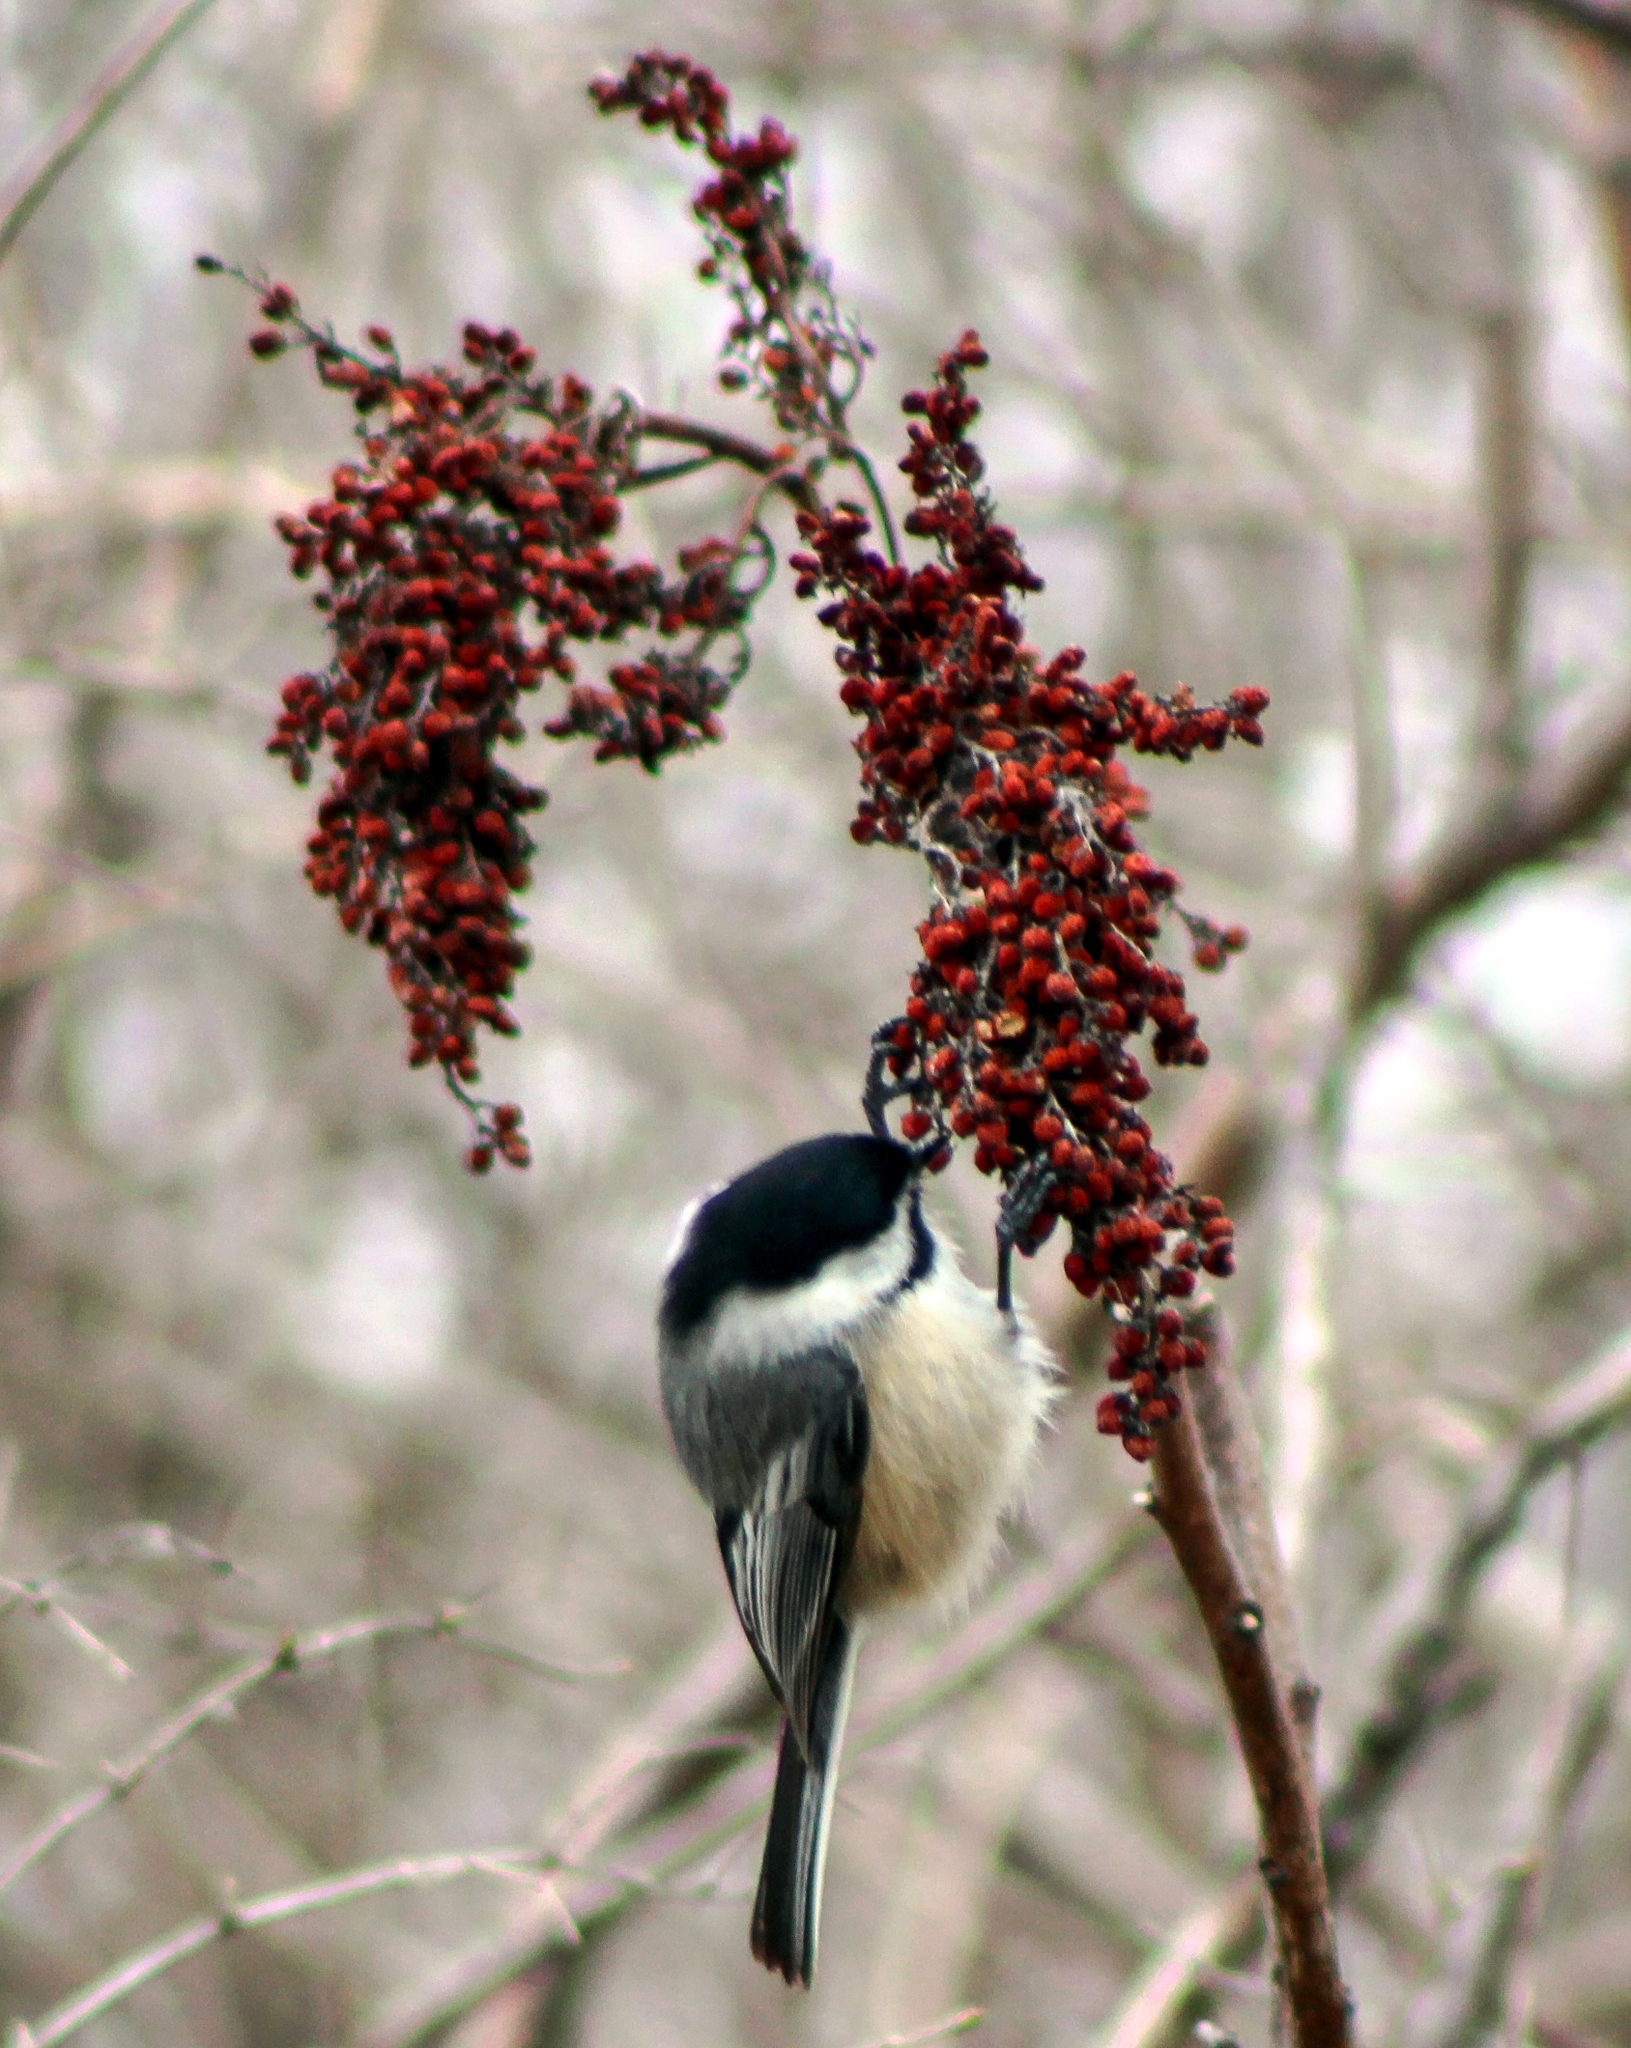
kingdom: Animalia
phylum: Chordata
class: Aves
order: Passeriformes
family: Paridae
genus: Poecile
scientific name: Poecile atricapillus
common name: Black-capped chickadee
